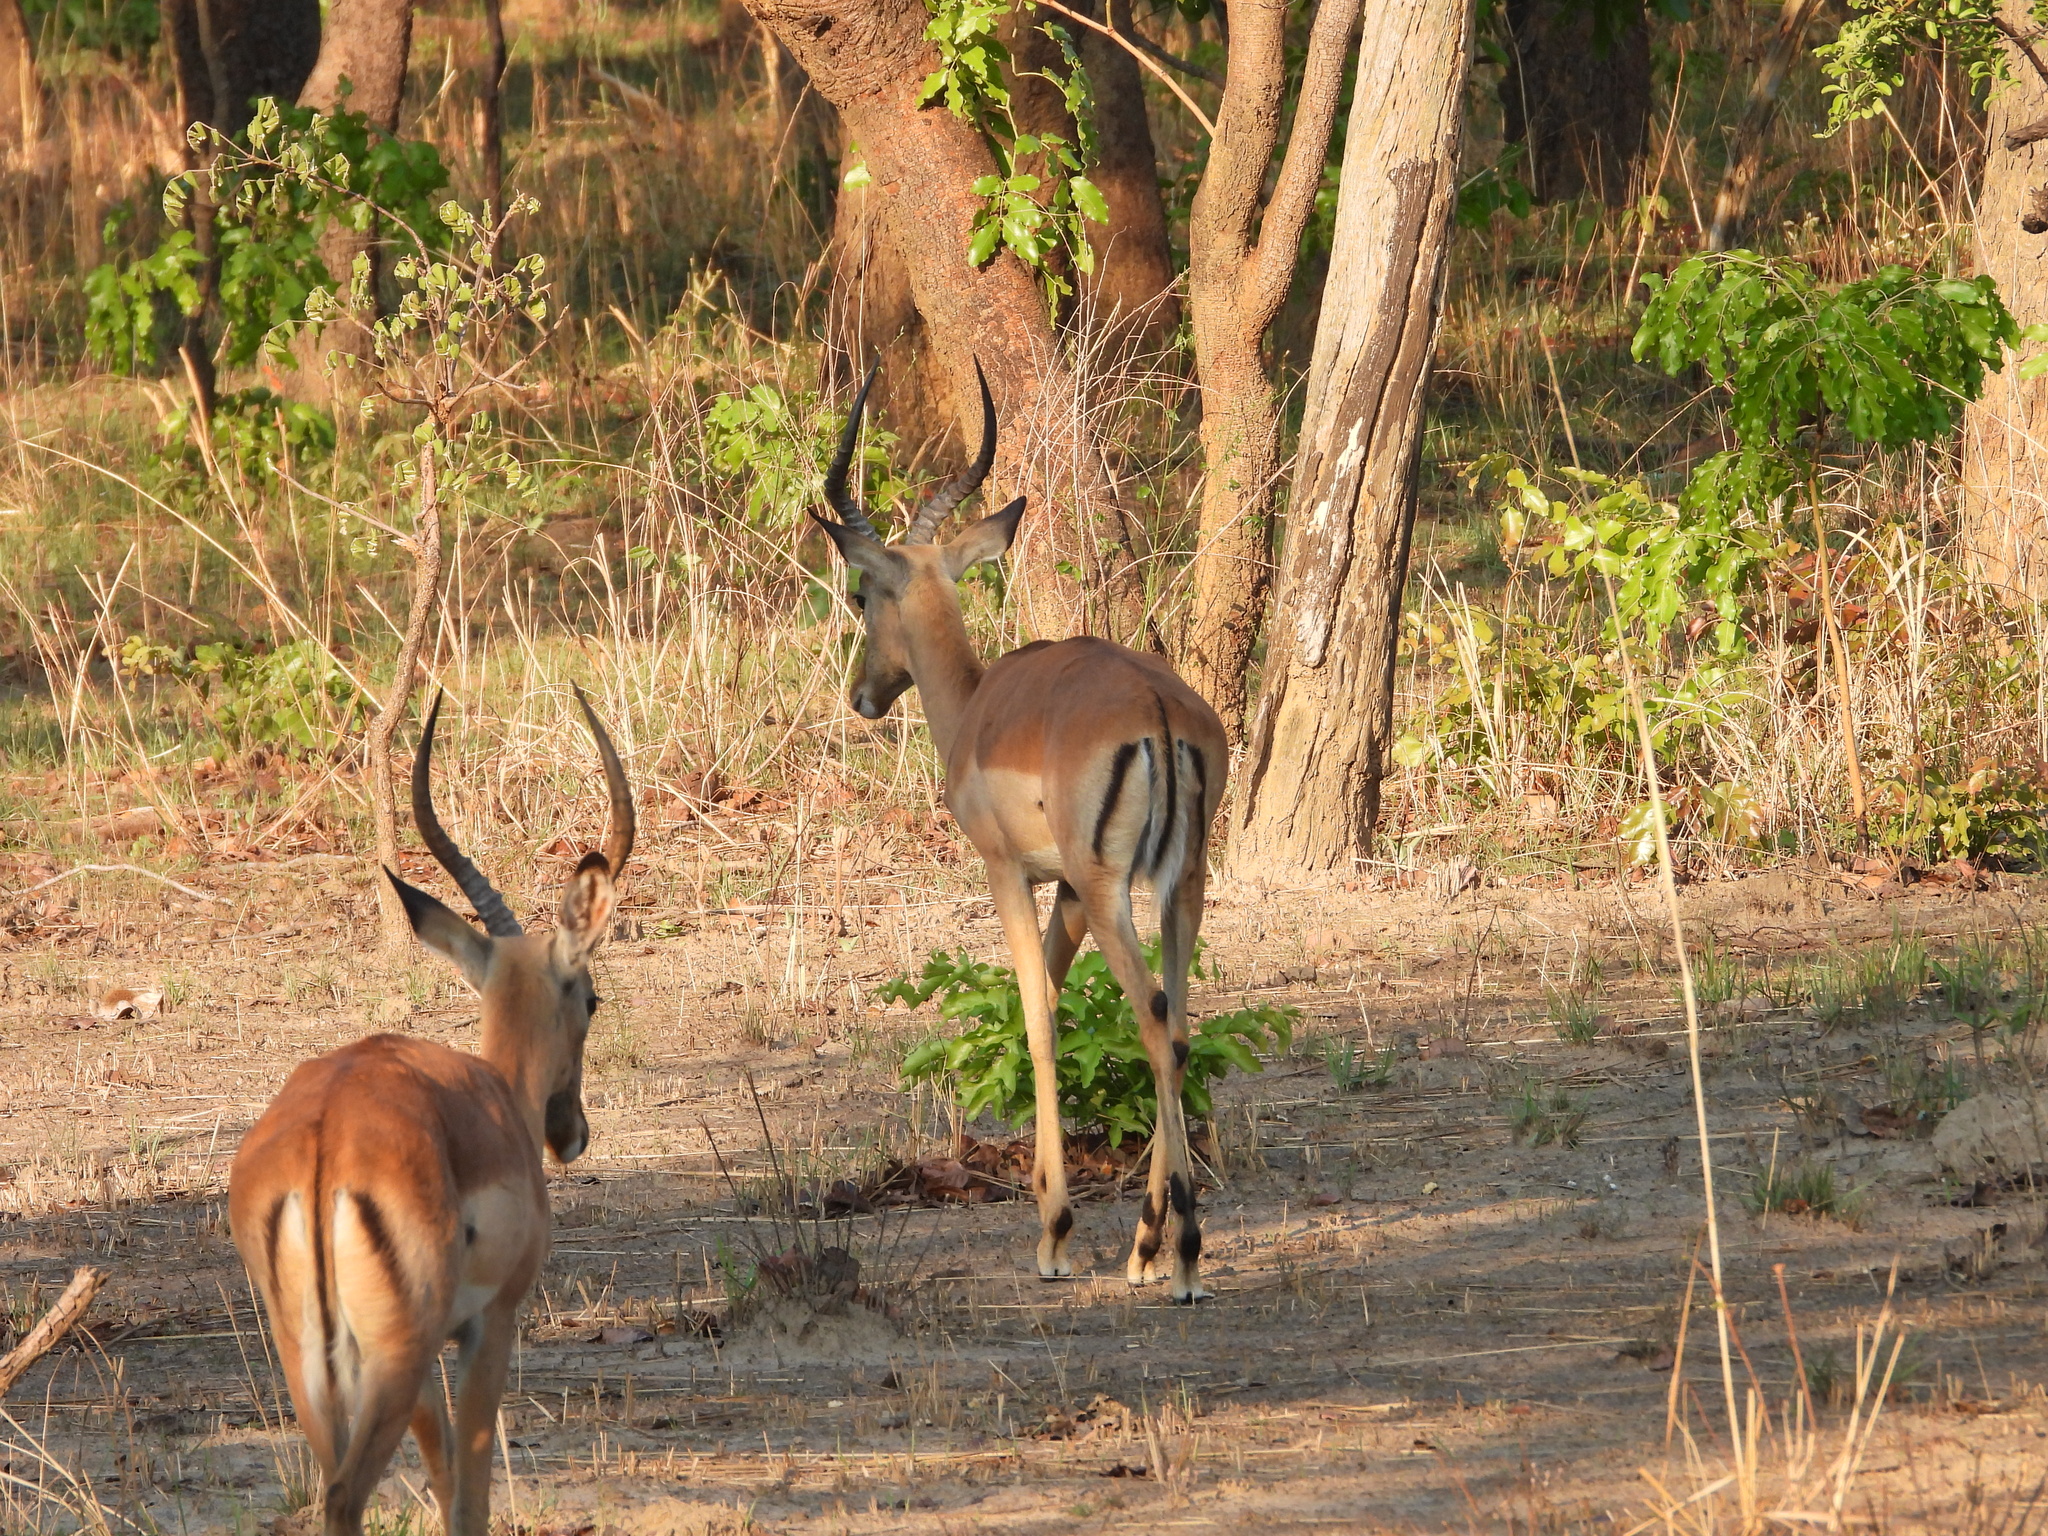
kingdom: Animalia
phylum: Chordata
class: Mammalia
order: Artiodactyla
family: Bovidae
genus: Aepyceros
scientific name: Aepyceros melampus
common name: Impala
